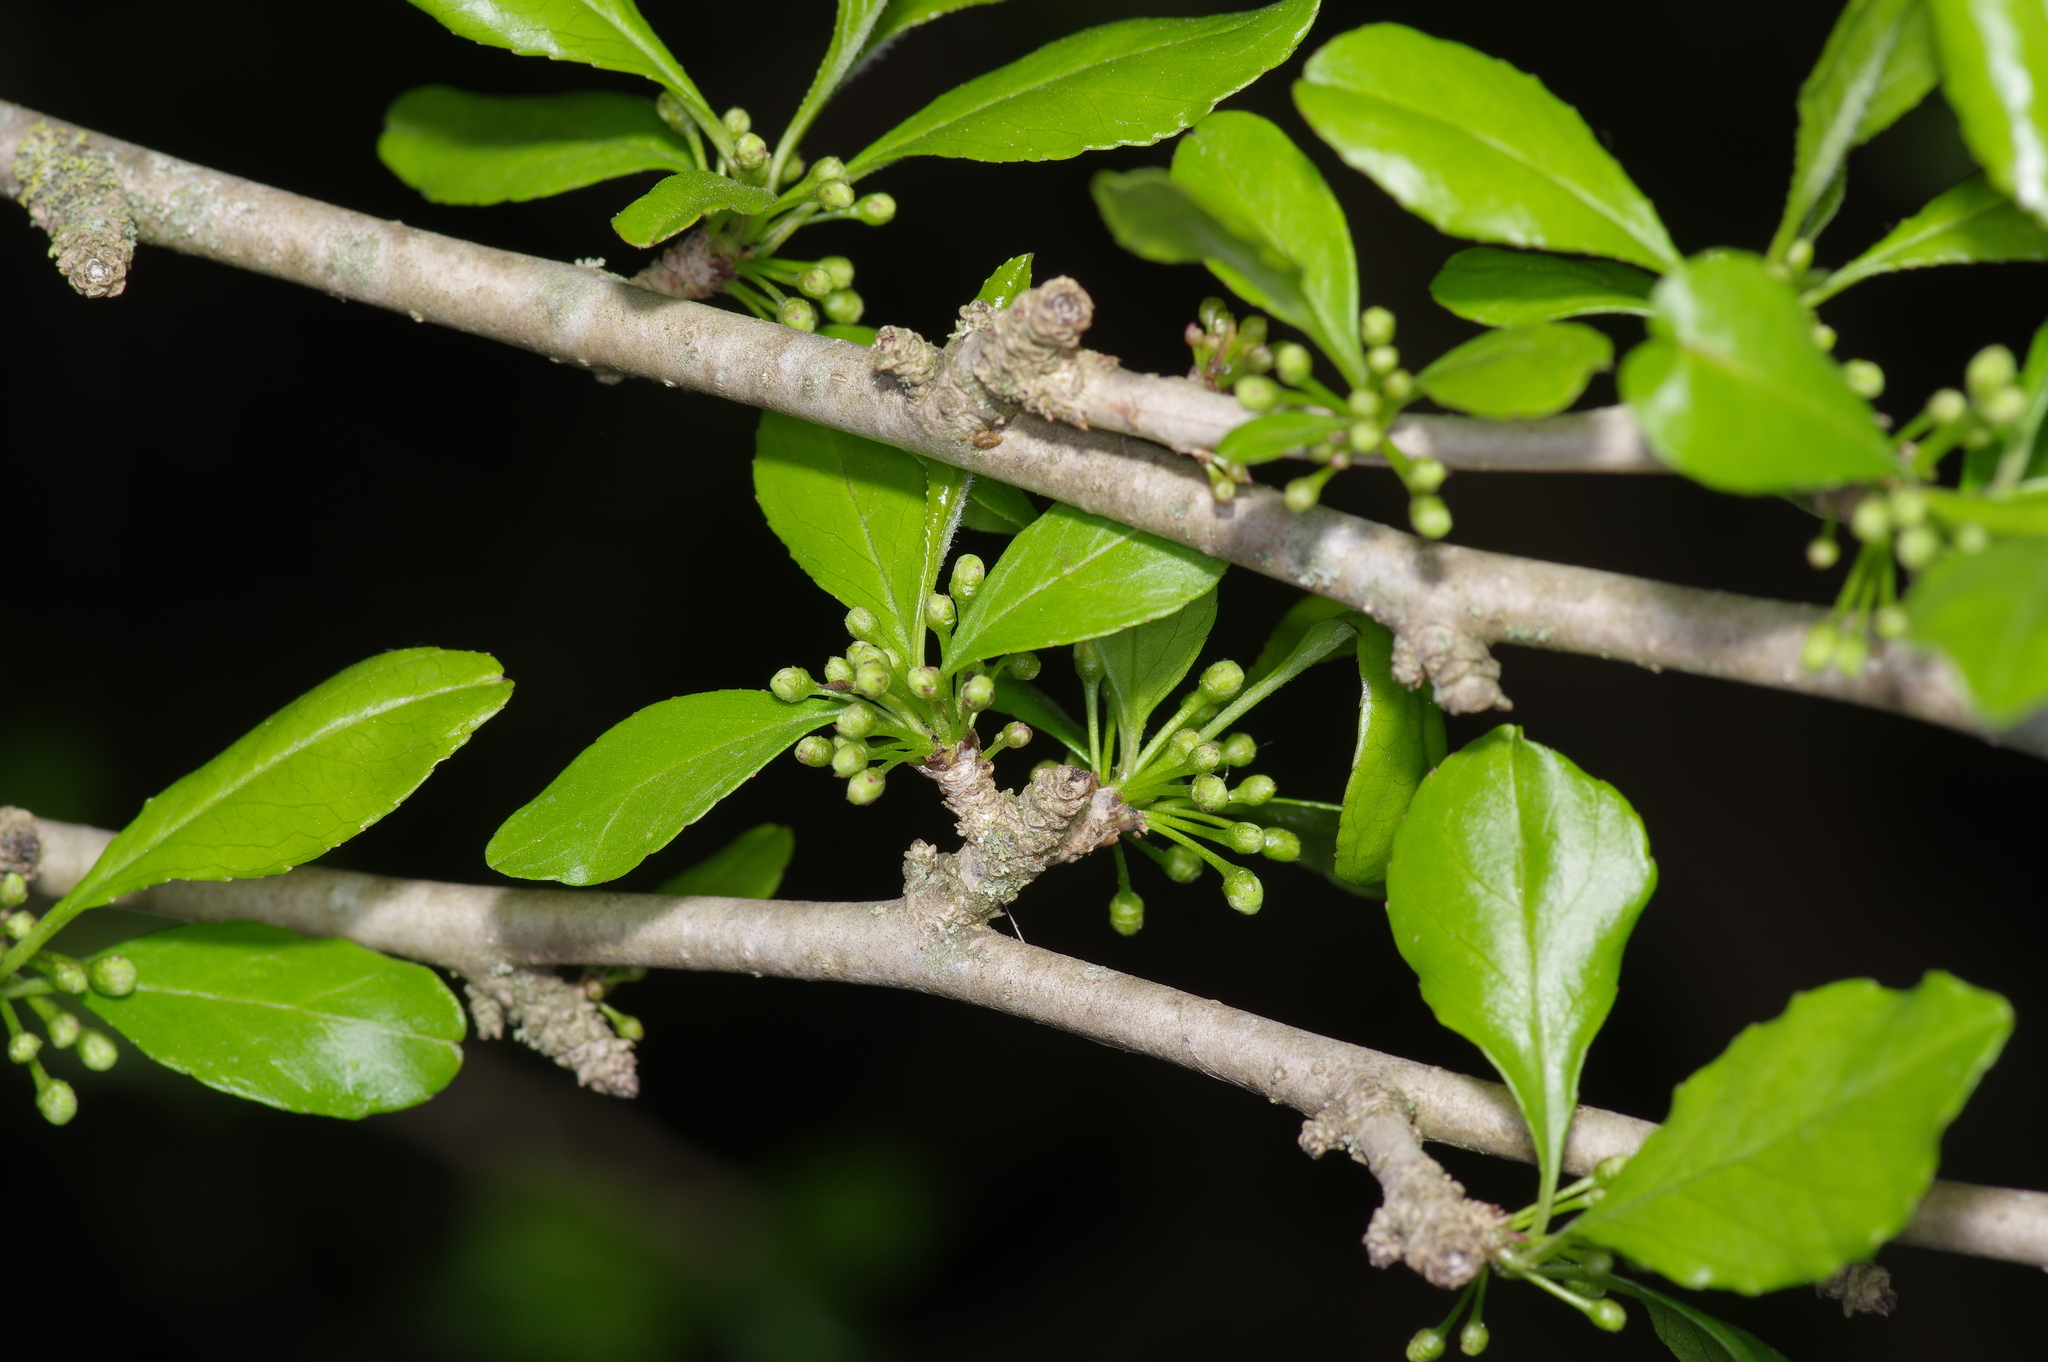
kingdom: Plantae
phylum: Tracheophyta
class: Magnoliopsida
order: Aquifoliales
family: Aquifoliaceae
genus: Ilex
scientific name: Ilex decidua
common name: Possum-haw
